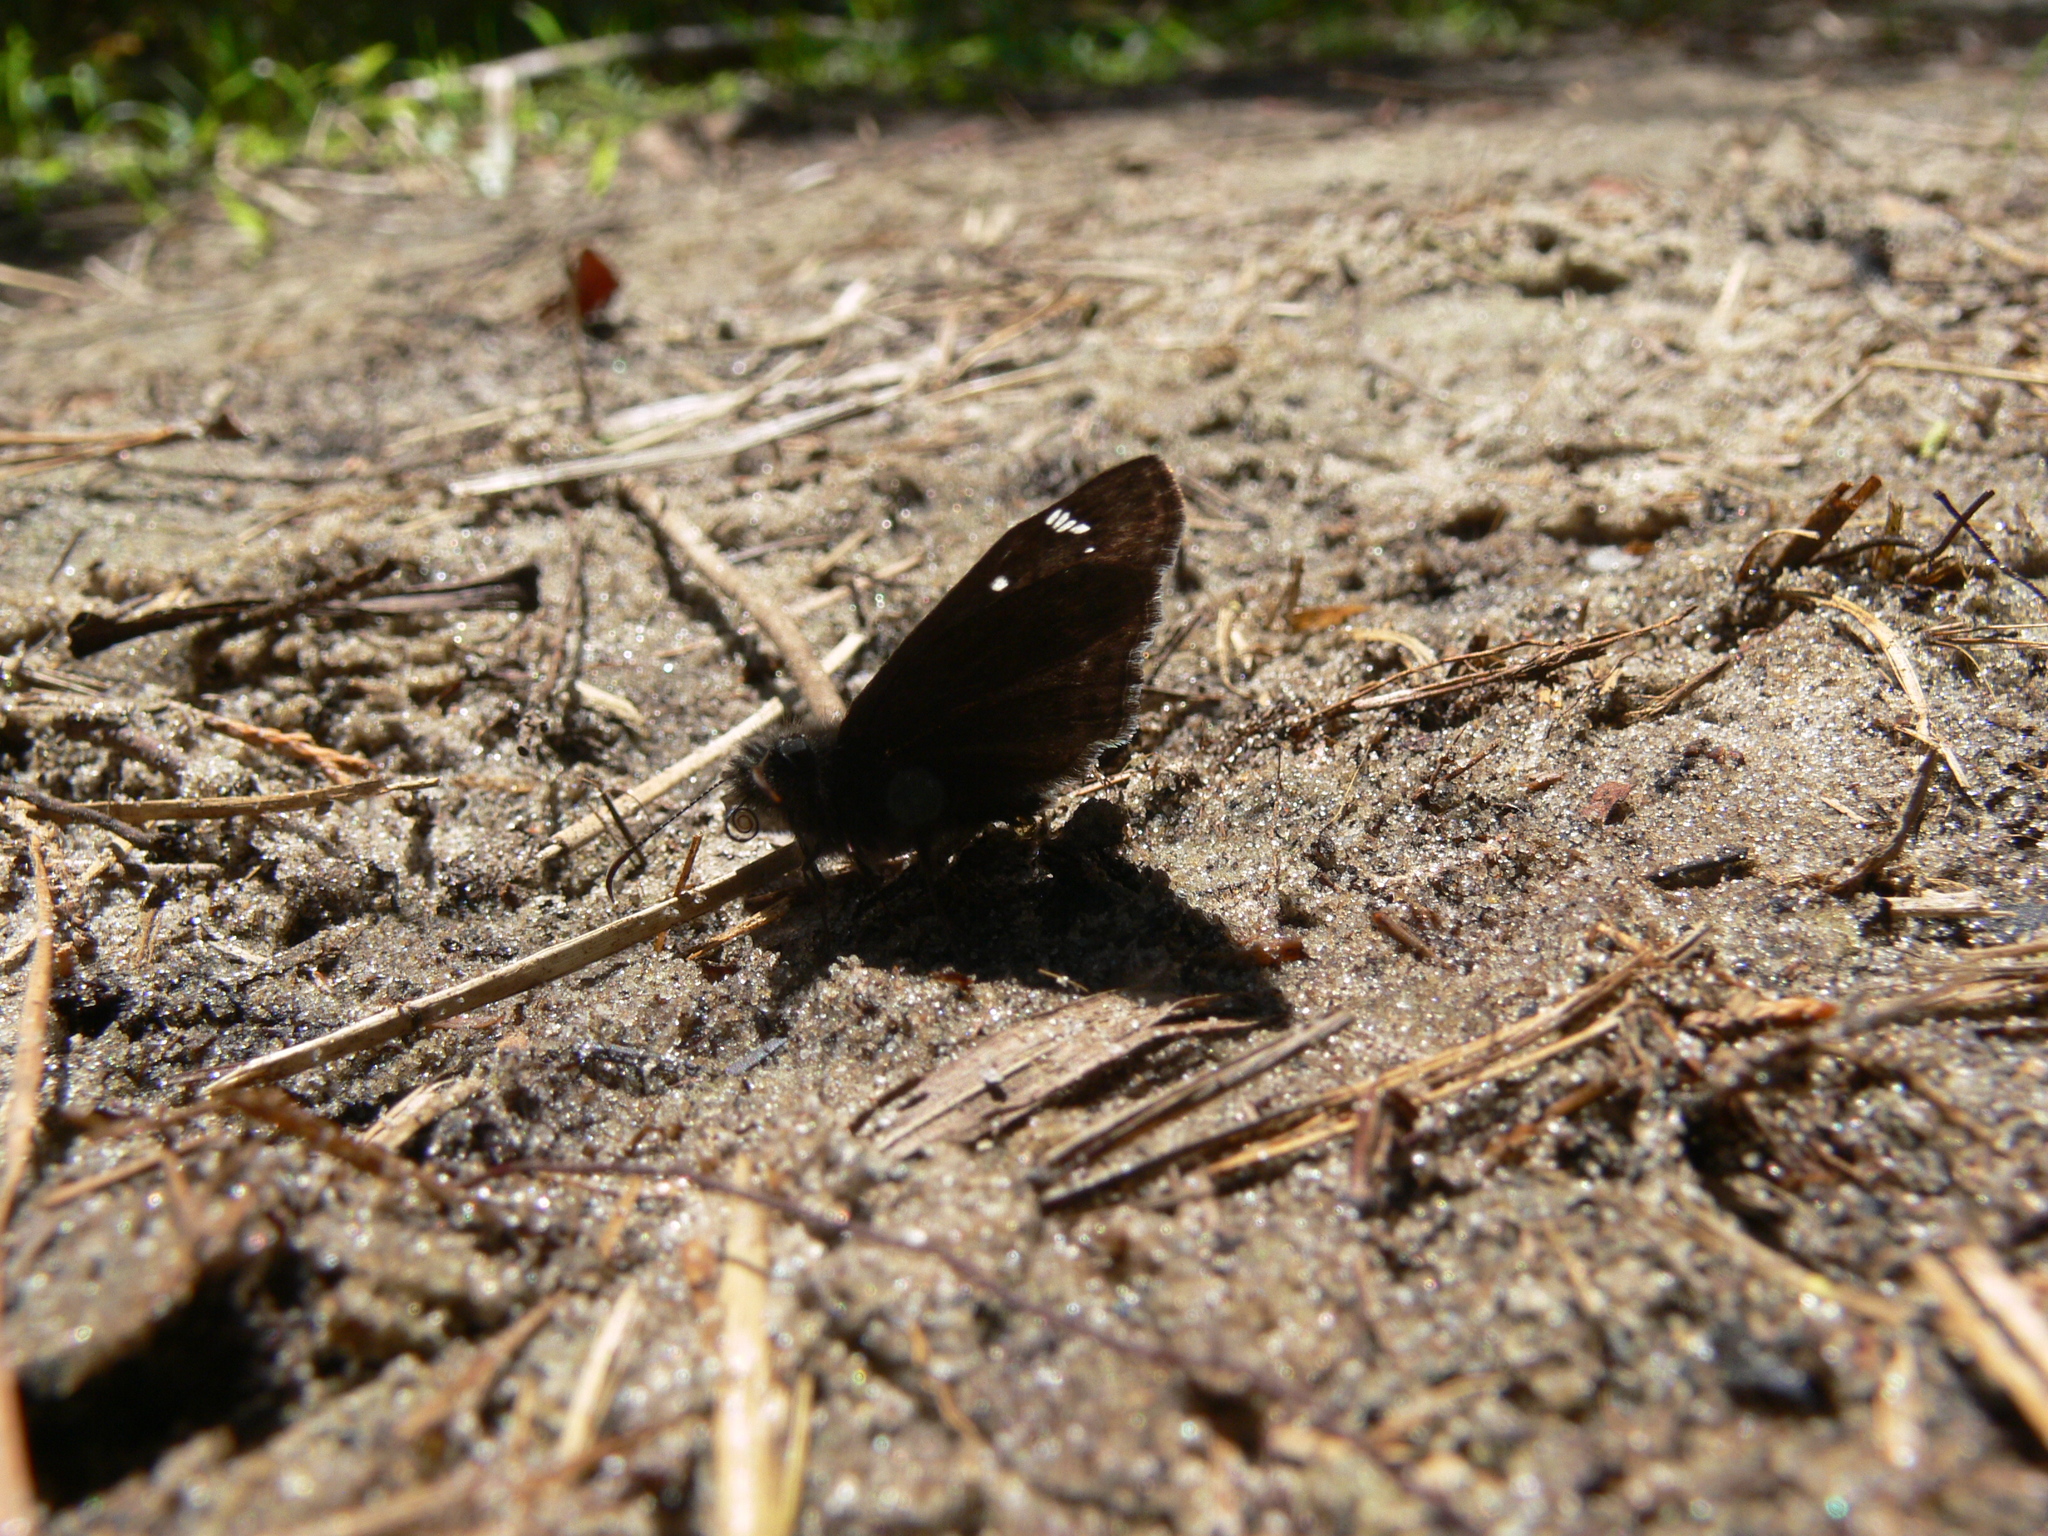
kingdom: Animalia
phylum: Arthropoda
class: Insecta
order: Lepidoptera
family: Hesperiidae
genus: Erynnis
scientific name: Erynnis horatius
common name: Horace's duskywing
